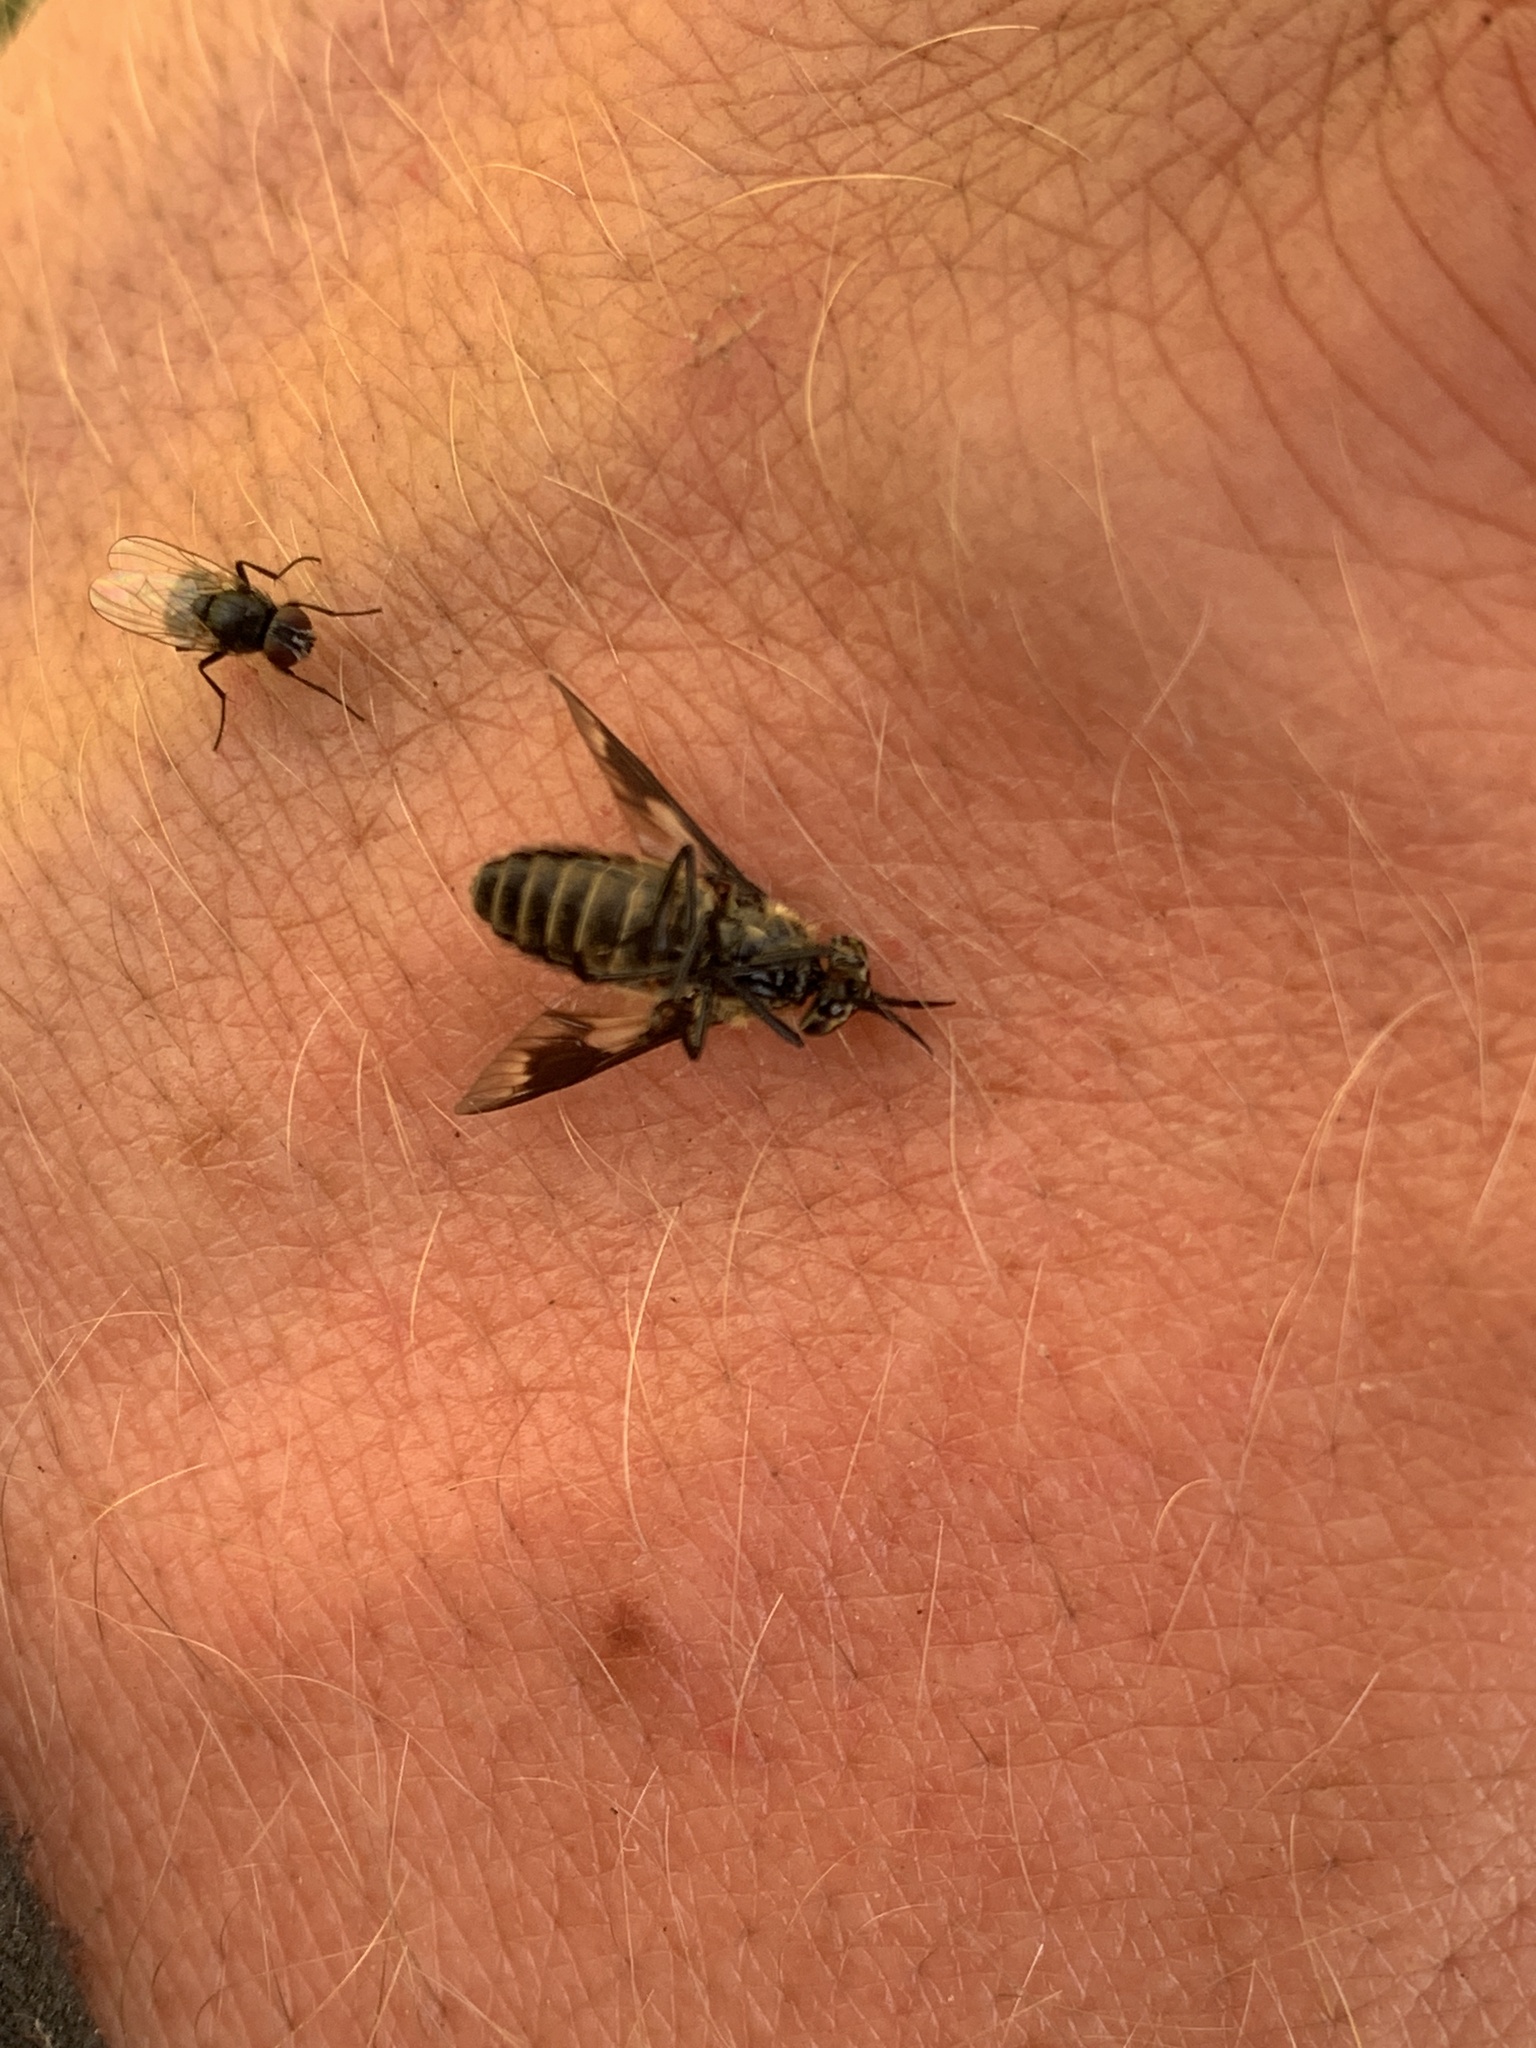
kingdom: Animalia
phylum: Arthropoda
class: Insecta
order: Diptera
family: Tabanidae
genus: Chrysops
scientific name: Chrysops nigripes
